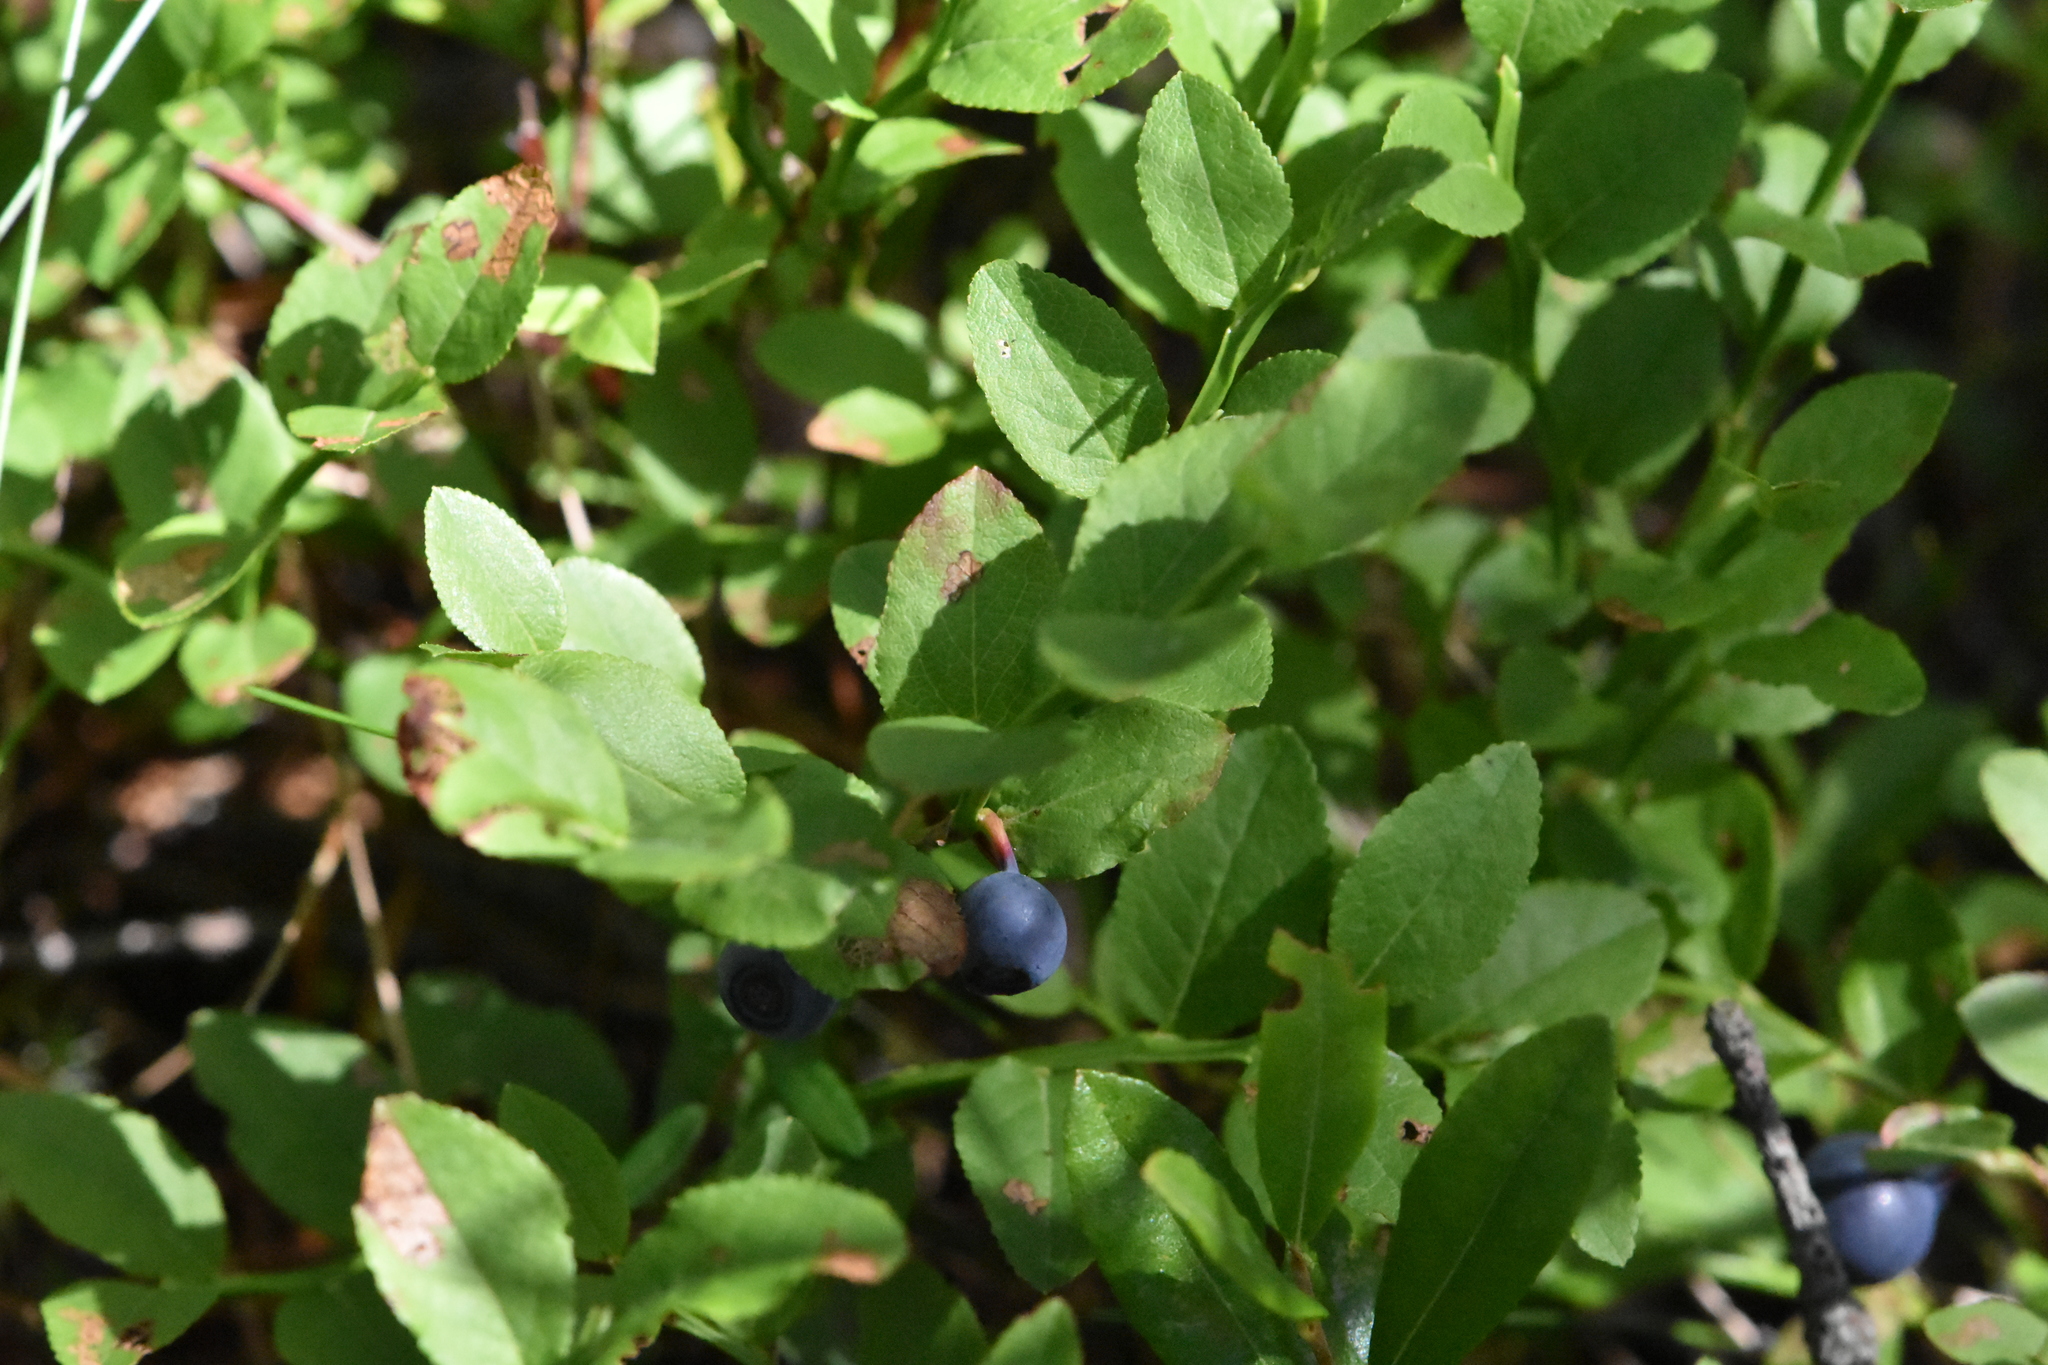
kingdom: Plantae
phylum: Tracheophyta
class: Magnoliopsida
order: Ericales
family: Ericaceae
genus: Vaccinium
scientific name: Vaccinium myrtillus
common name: Bilberry
